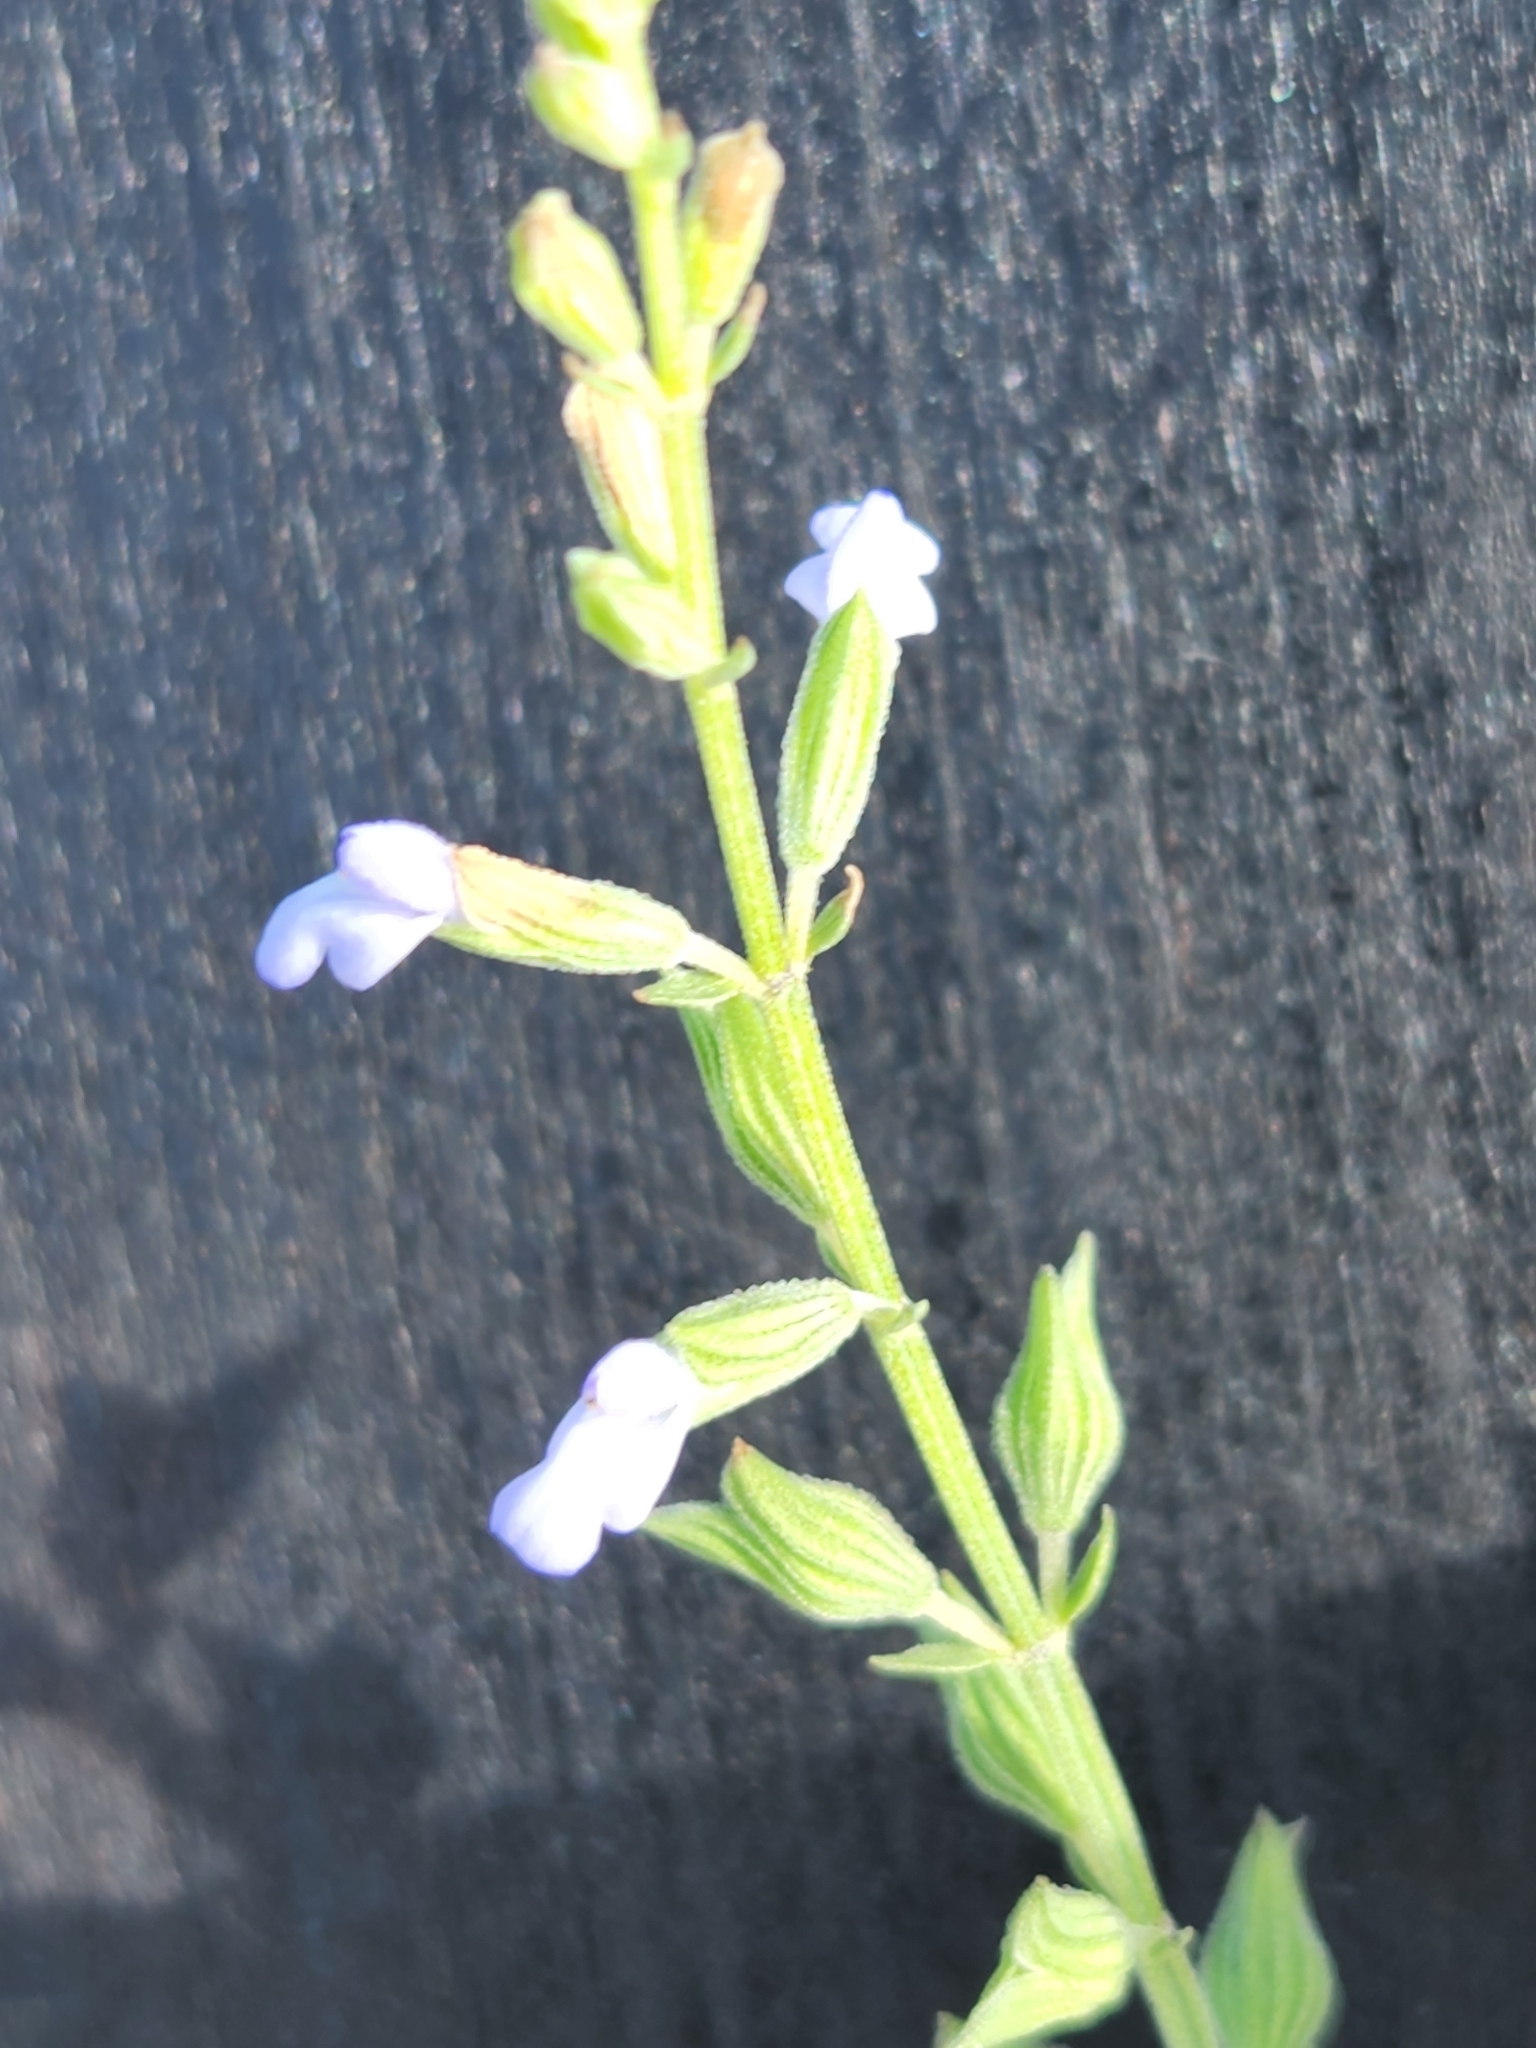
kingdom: Plantae
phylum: Tracheophyta
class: Magnoliopsida
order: Lamiales
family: Lamiaceae
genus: Salvia
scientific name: Salvia reflexa
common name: Mintweed
